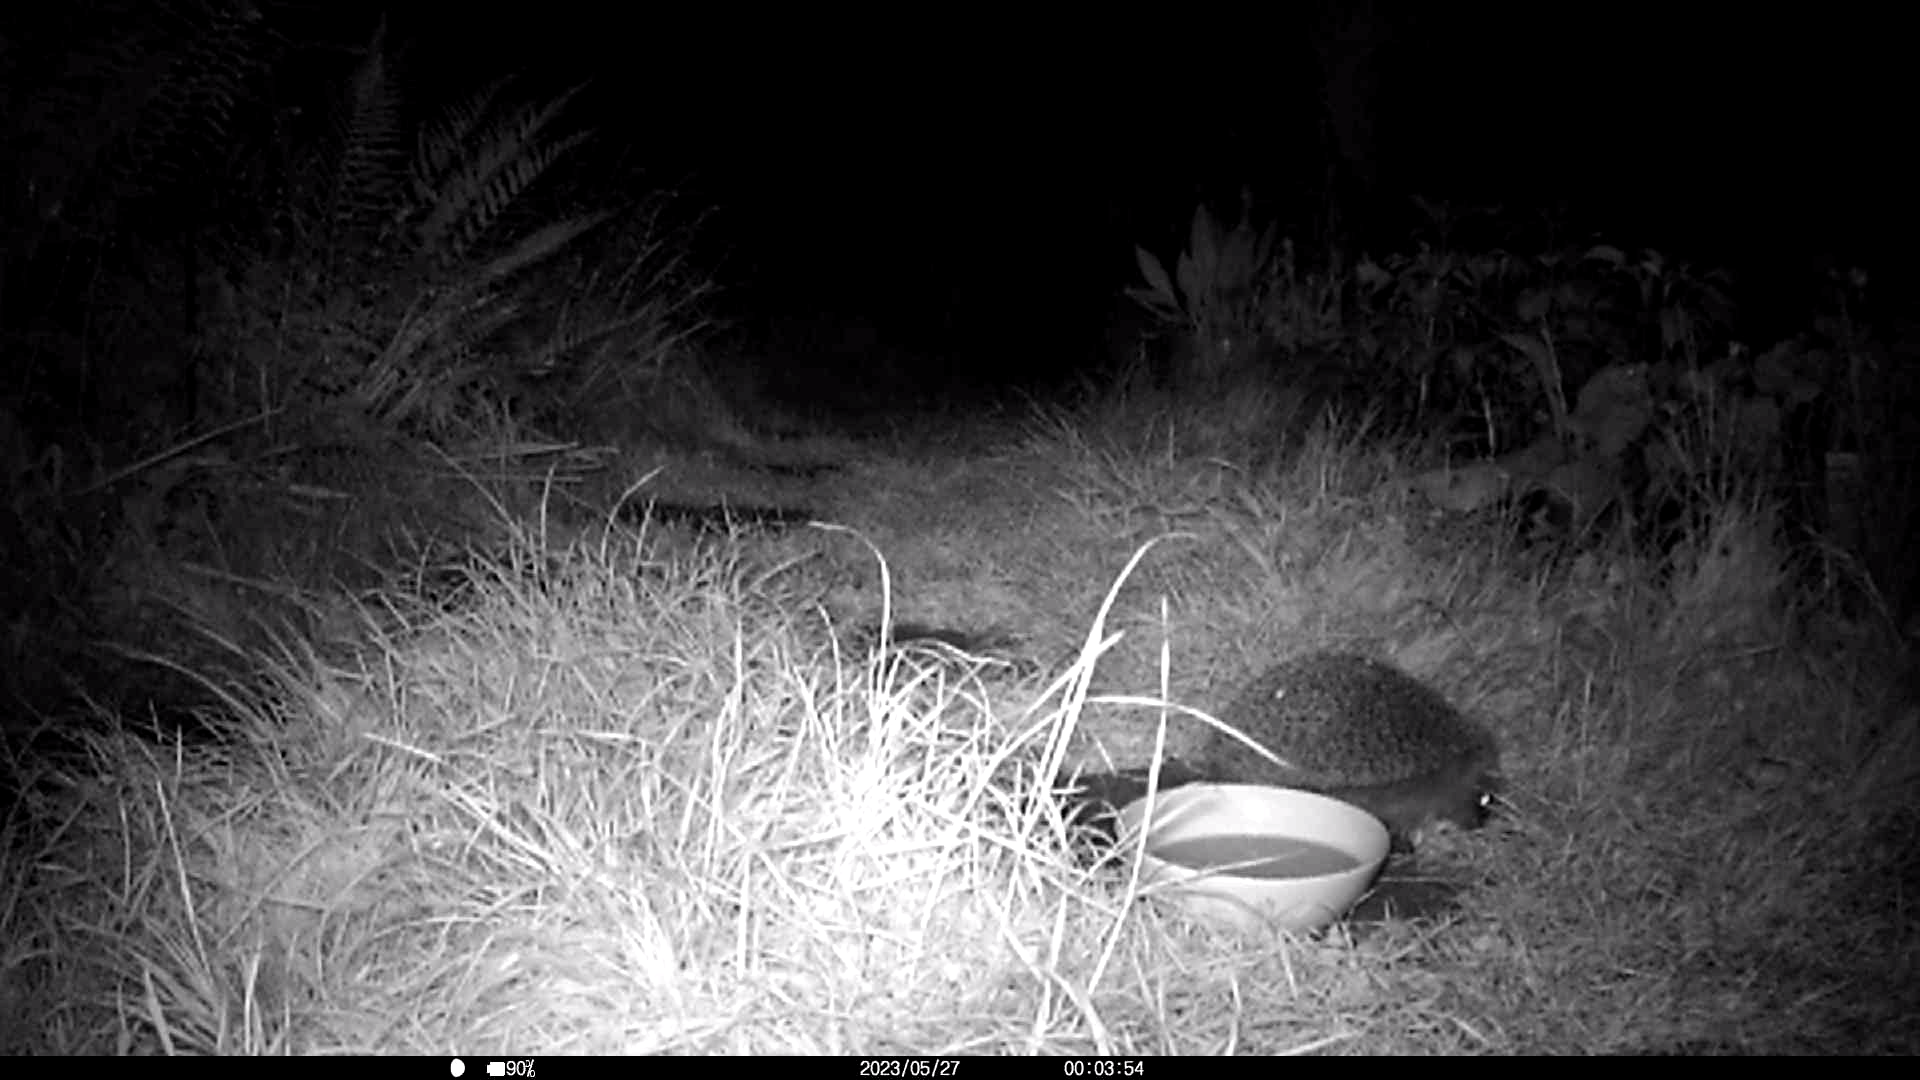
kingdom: Animalia
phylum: Chordata
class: Mammalia
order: Erinaceomorpha
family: Erinaceidae
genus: Erinaceus
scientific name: Erinaceus europaeus
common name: West european hedgehog
